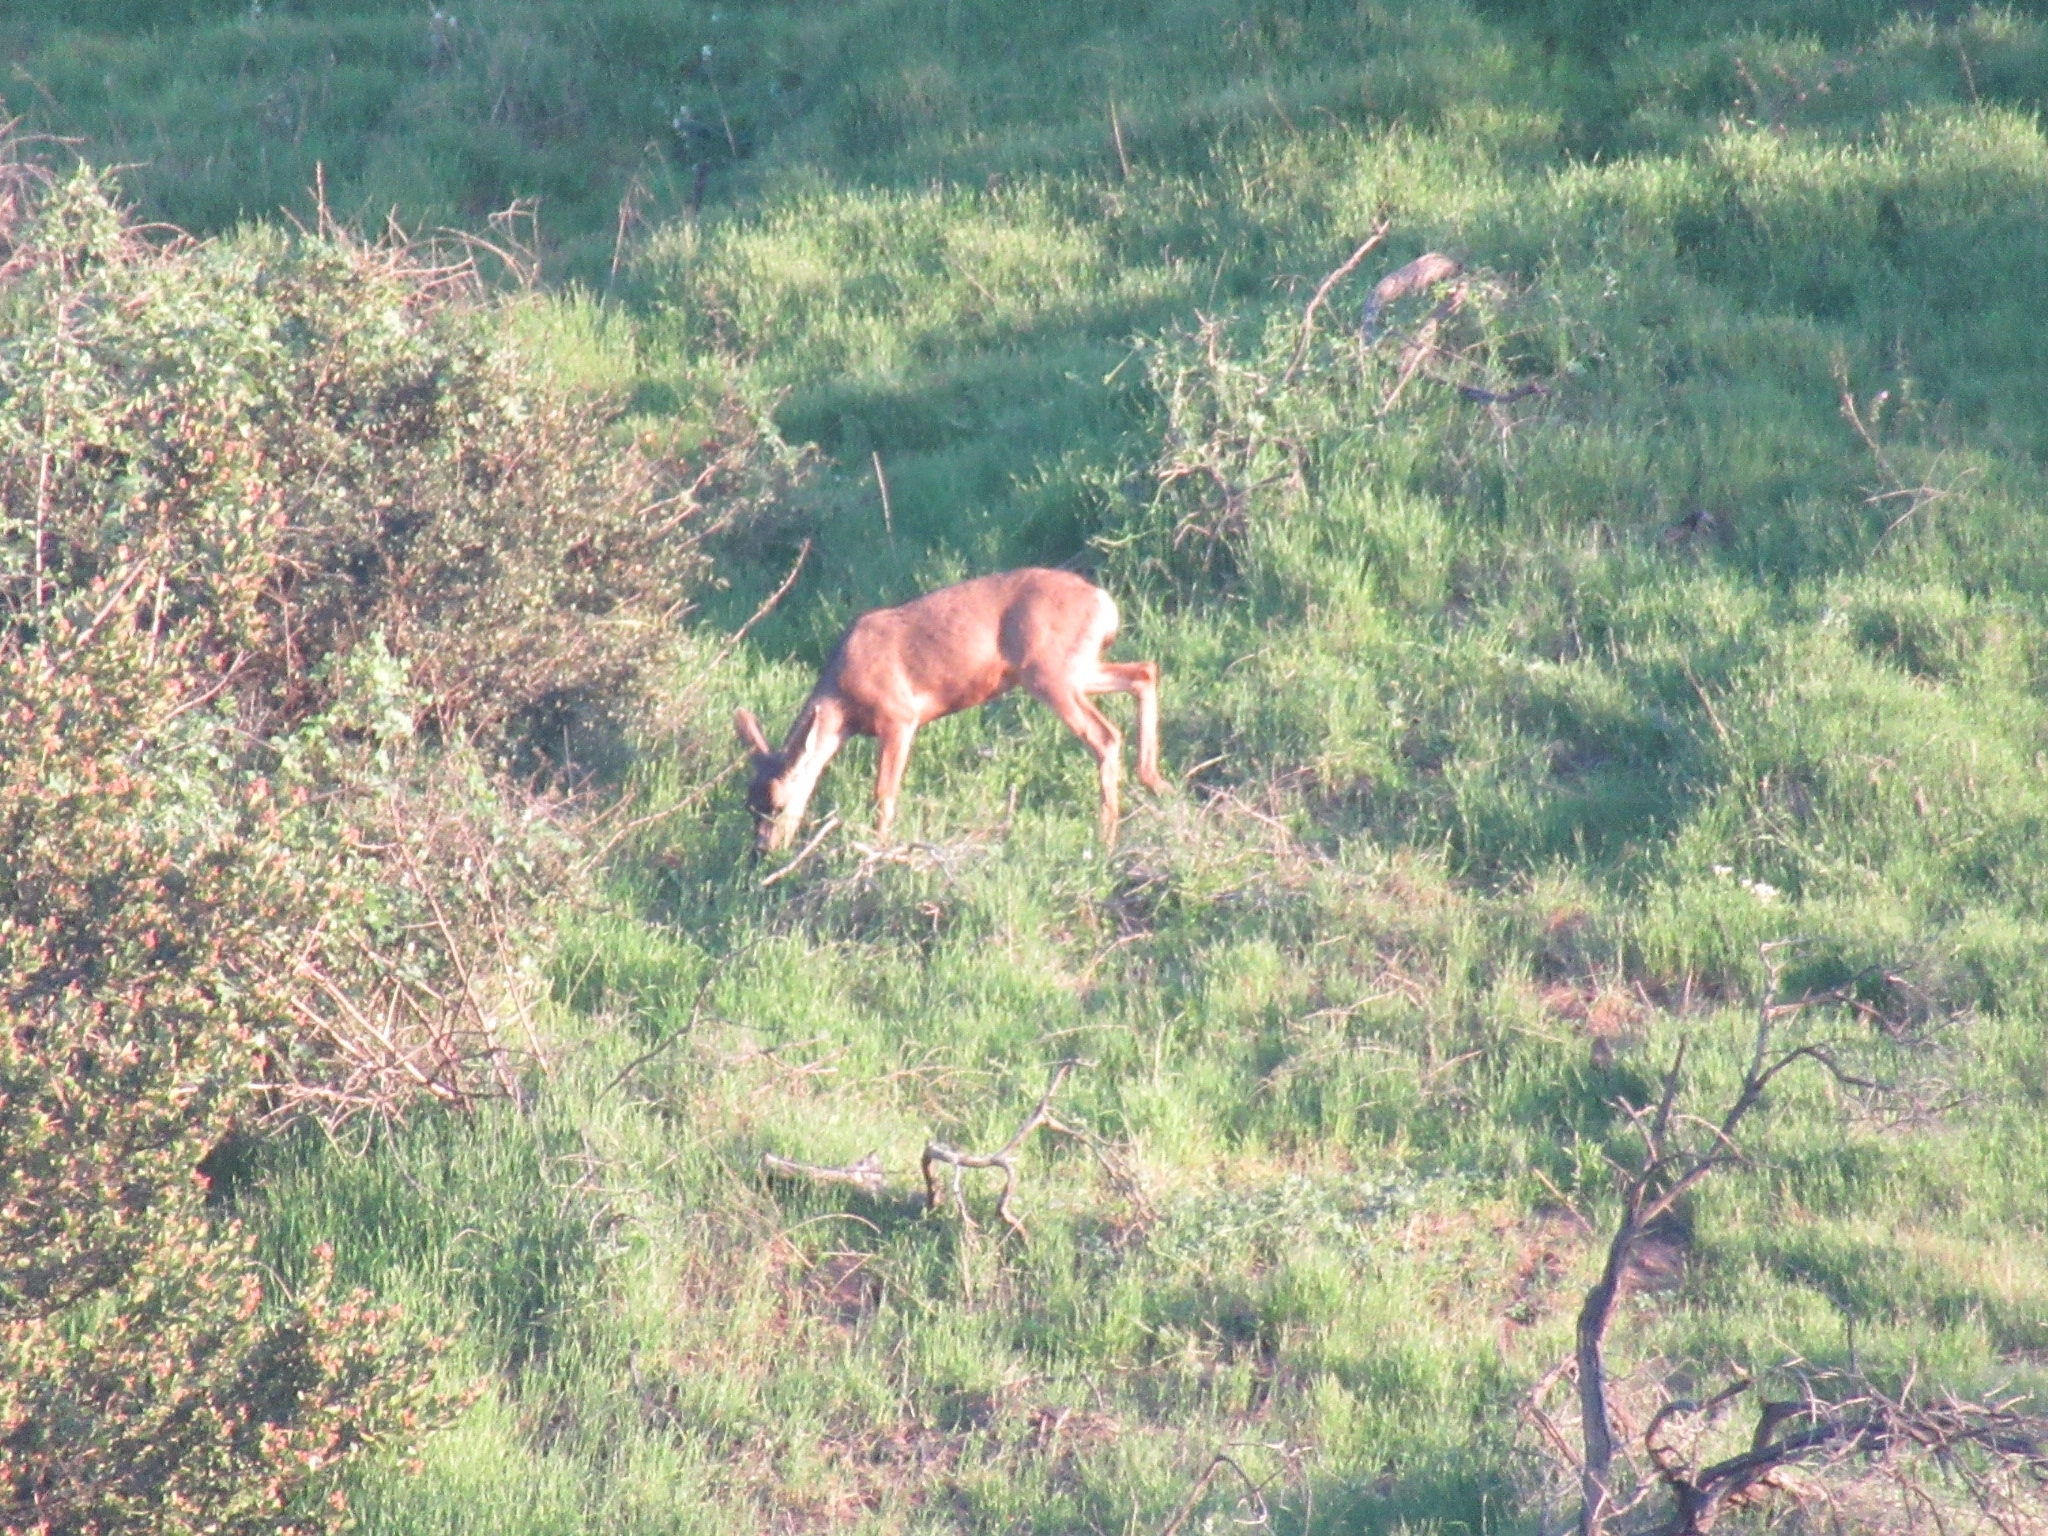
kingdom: Animalia
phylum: Chordata
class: Mammalia
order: Artiodactyla
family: Cervidae
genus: Odocoileus
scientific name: Odocoileus hemionus
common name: Mule deer
